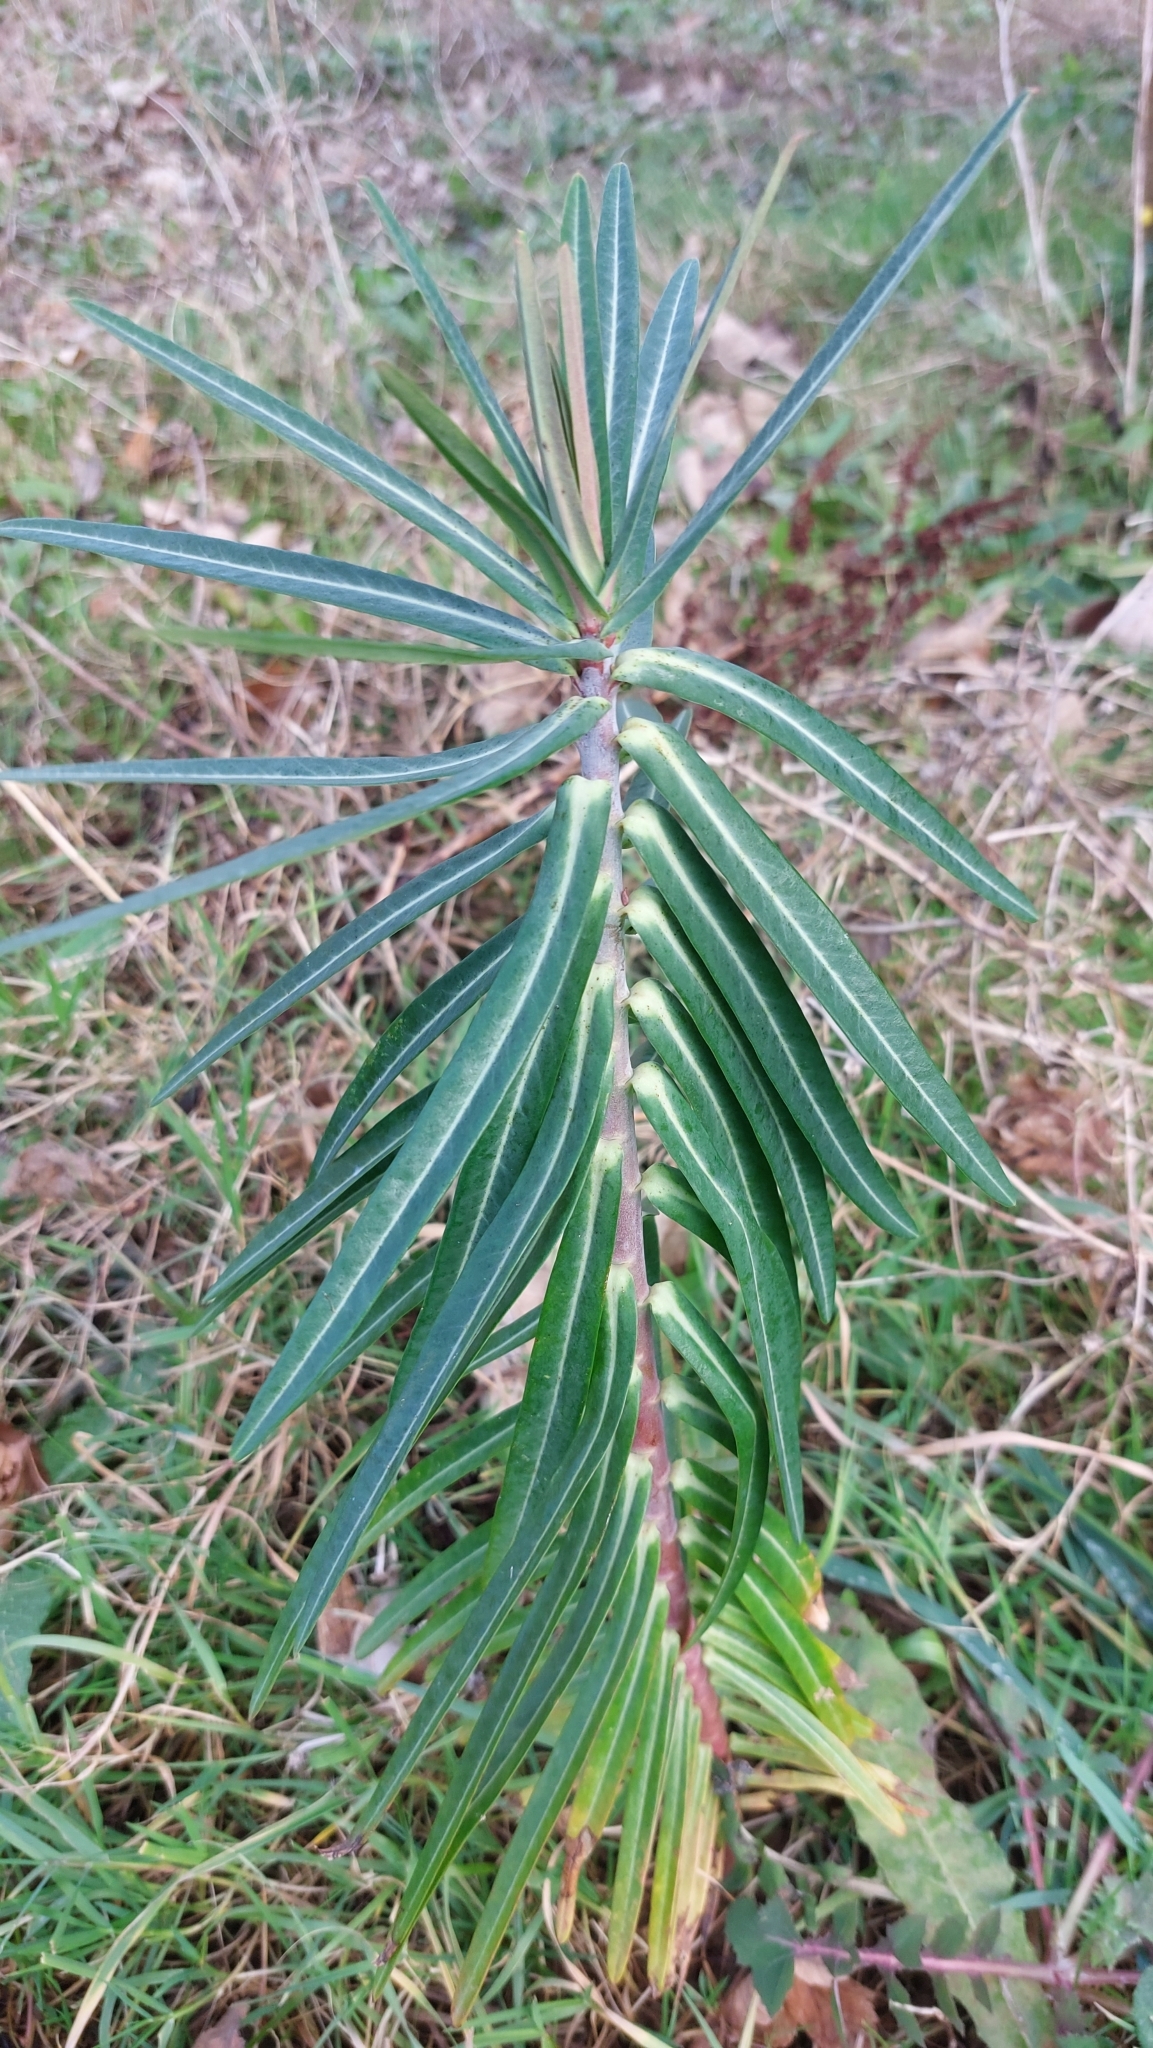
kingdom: Plantae
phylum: Tracheophyta
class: Magnoliopsida
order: Malpighiales
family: Euphorbiaceae
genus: Euphorbia
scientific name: Euphorbia lathyris
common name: Caper spurge
